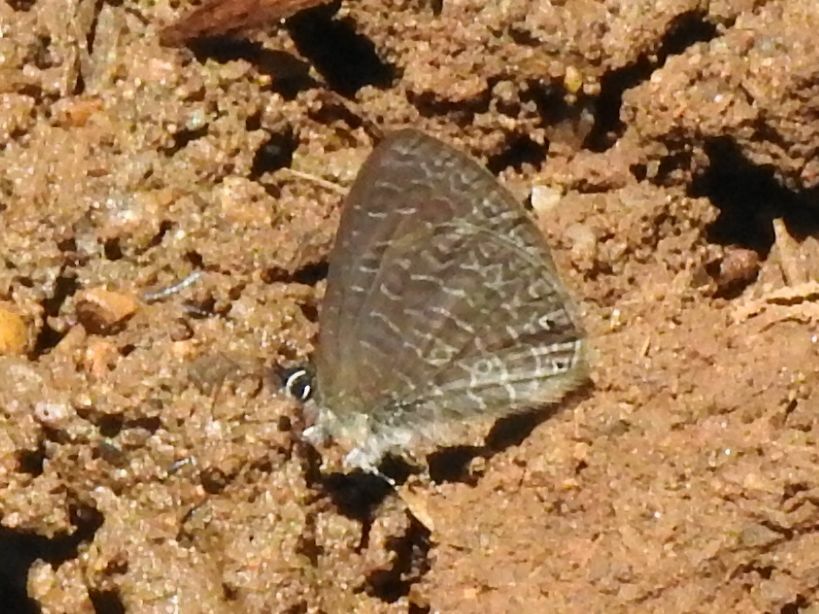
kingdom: Animalia
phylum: Arthropoda
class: Insecta
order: Lepidoptera
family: Lycaenidae
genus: Pseudonacaduba
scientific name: Pseudonacaduba sichela
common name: African line blue
